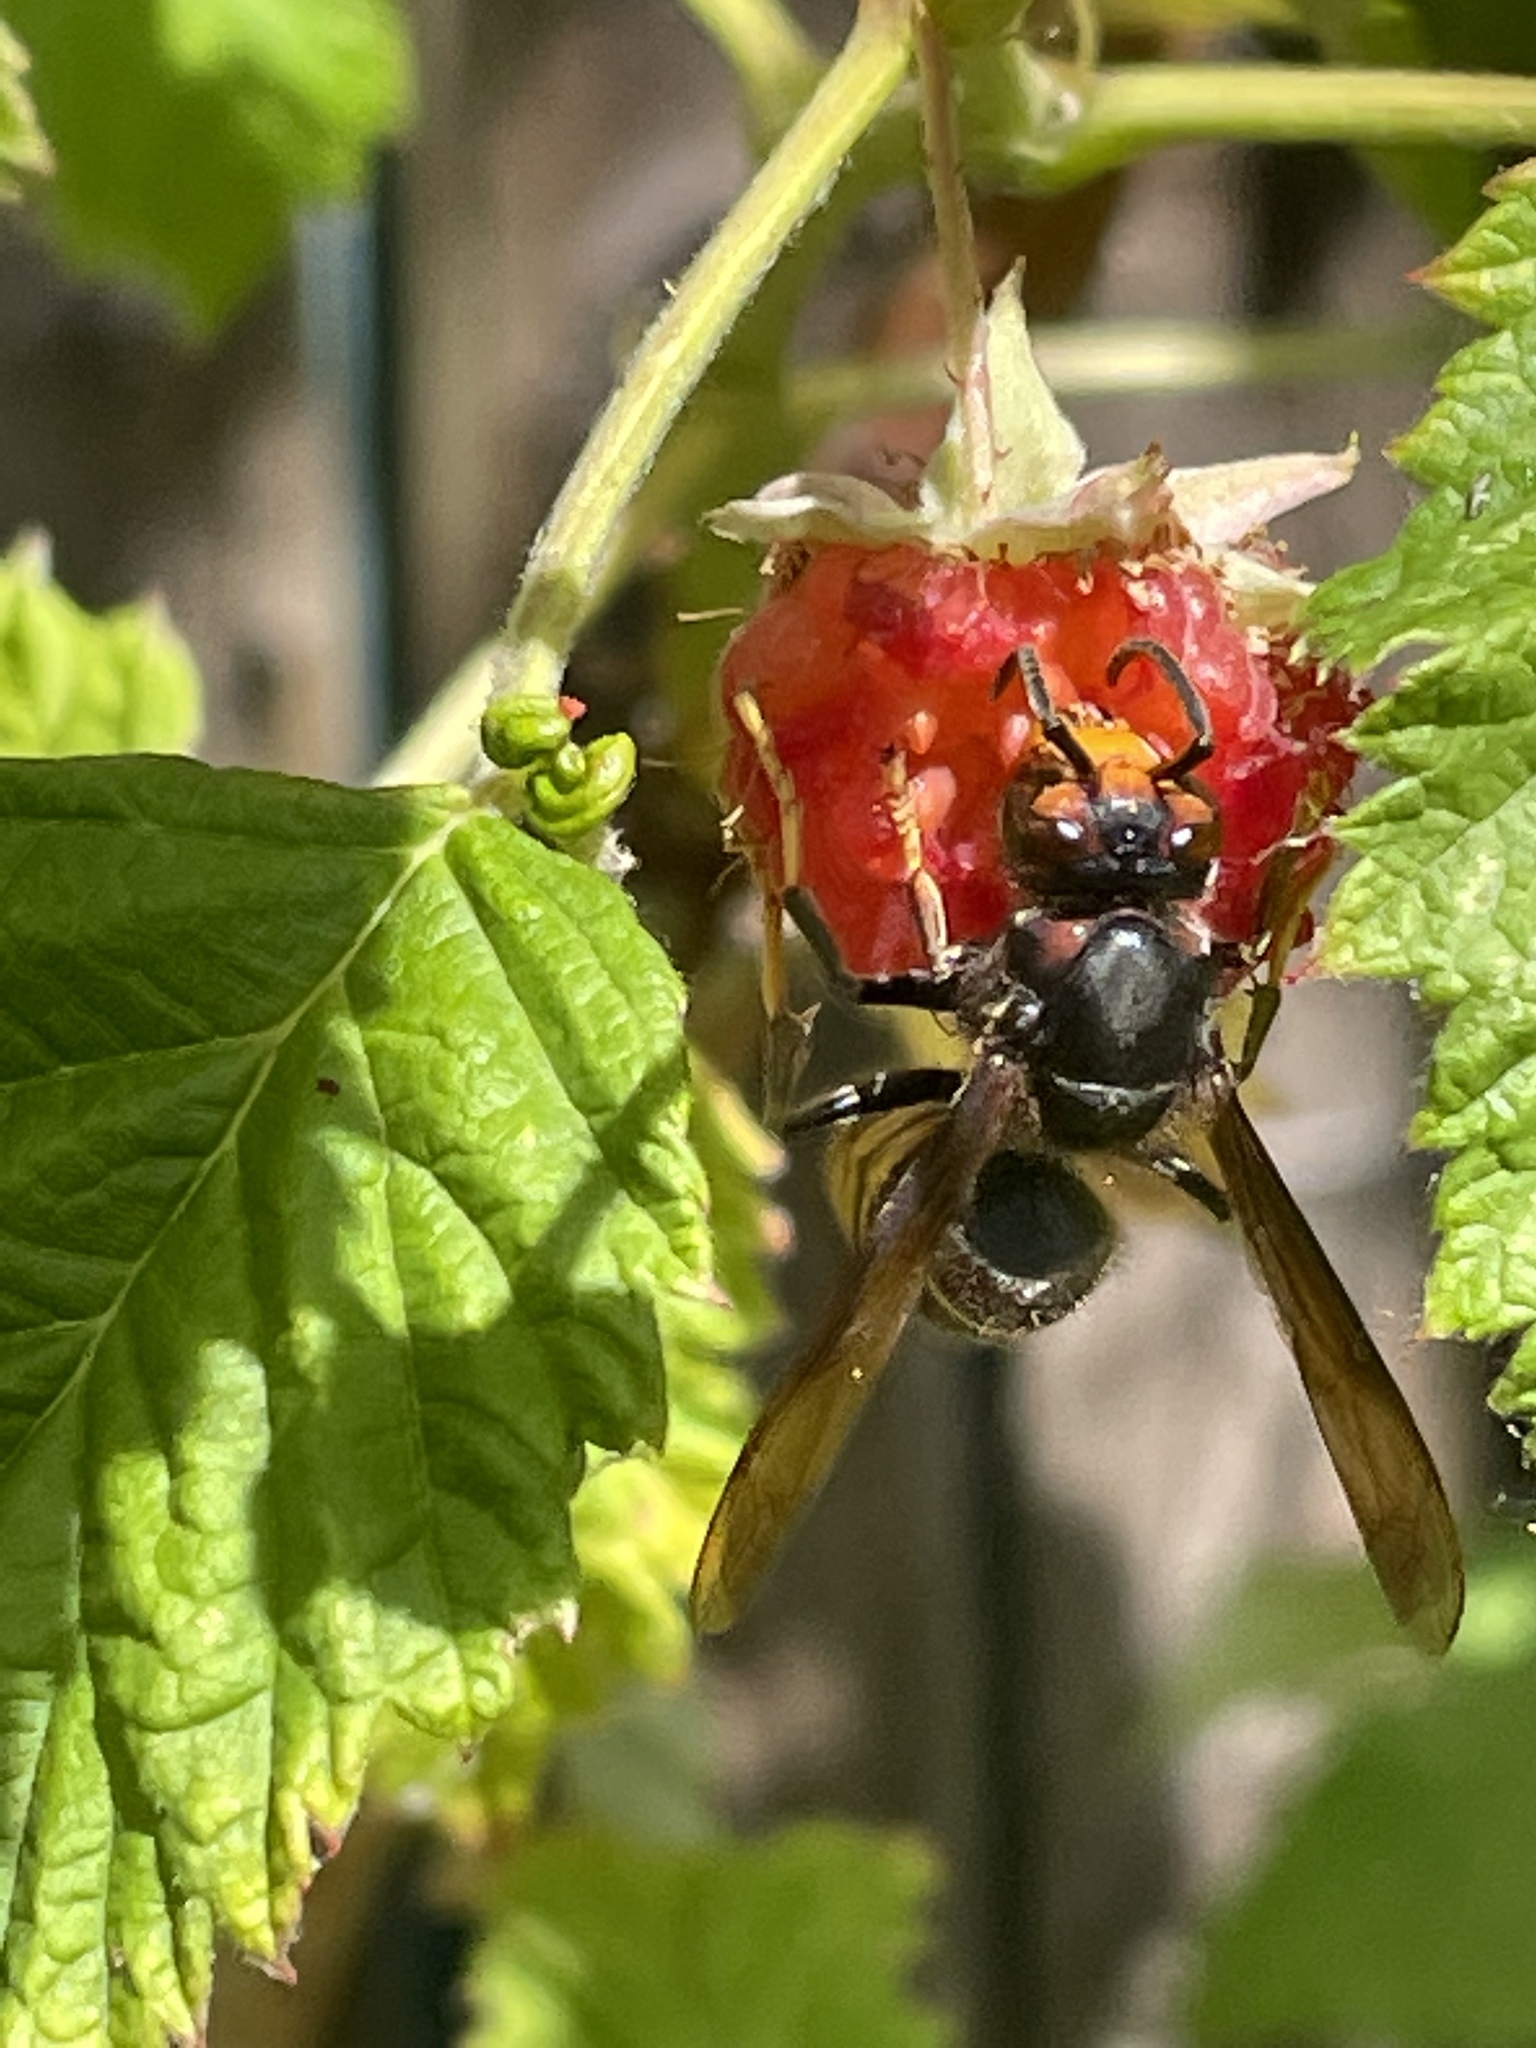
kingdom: Animalia
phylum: Arthropoda
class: Insecta
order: Hymenoptera
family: Vespidae
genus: Vespa
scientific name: Vespa velutina
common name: Asian hornet
